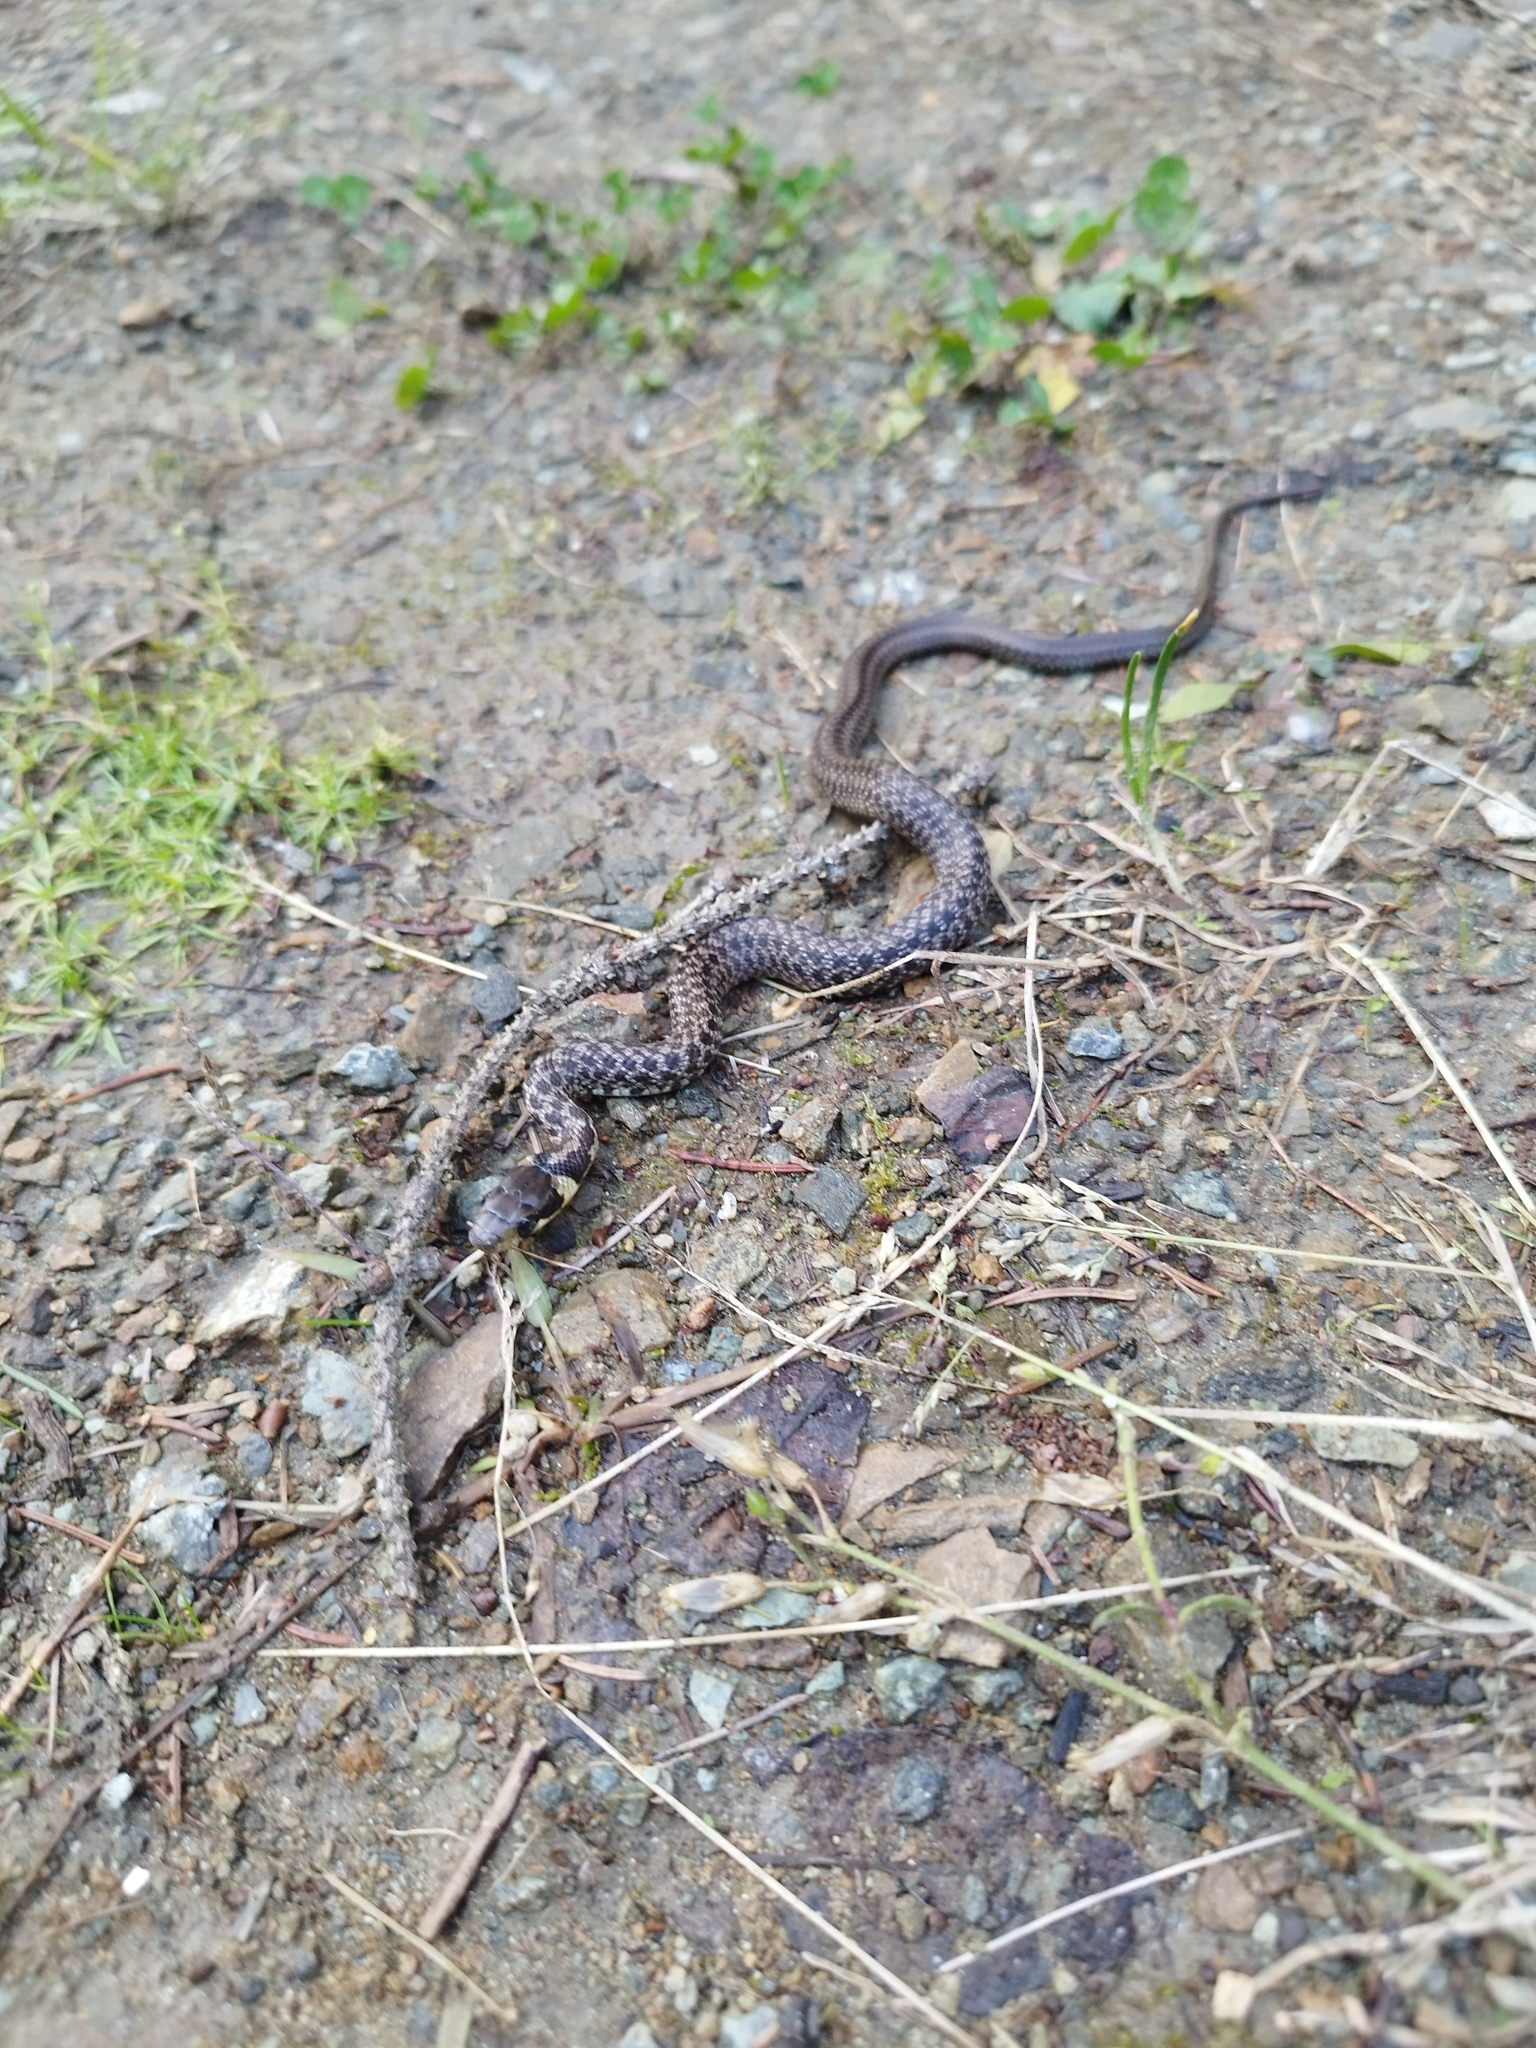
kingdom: Animalia
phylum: Chordata
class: Squamata
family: Colubridae
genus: Zamenis
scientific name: Zamenis longissimus
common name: Aesculapean snake
